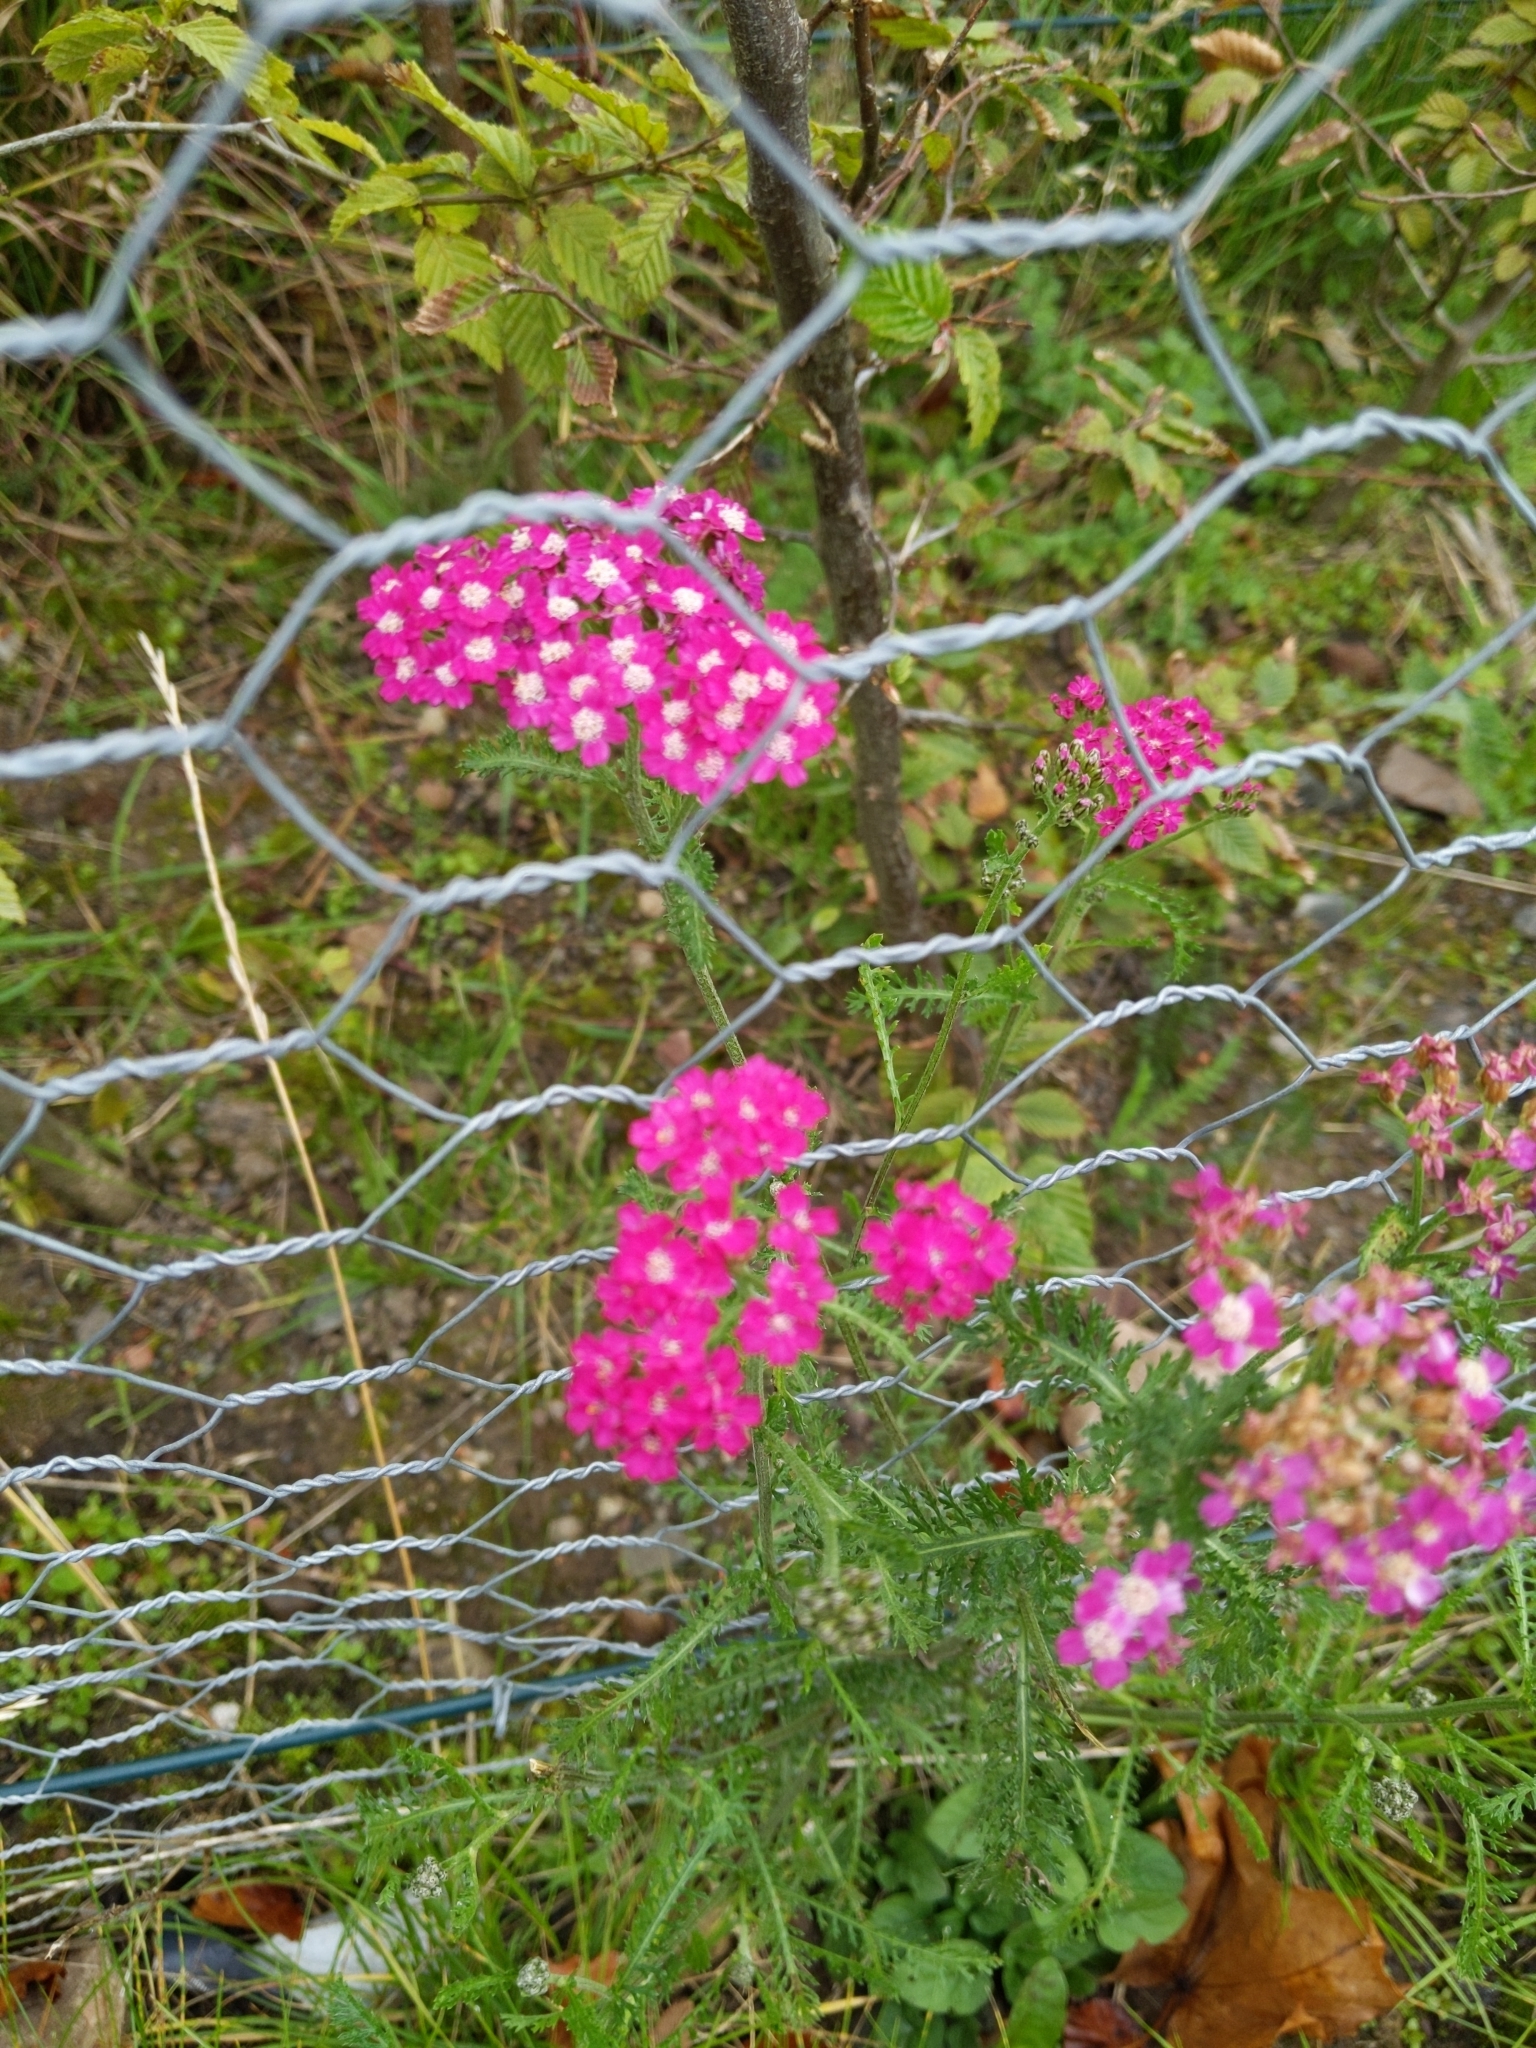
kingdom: Plantae
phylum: Tracheophyta
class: Magnoliopsida
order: Asterales
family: Asteraceae
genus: Achillea
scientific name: Achillea millefolium
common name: Yarrow
